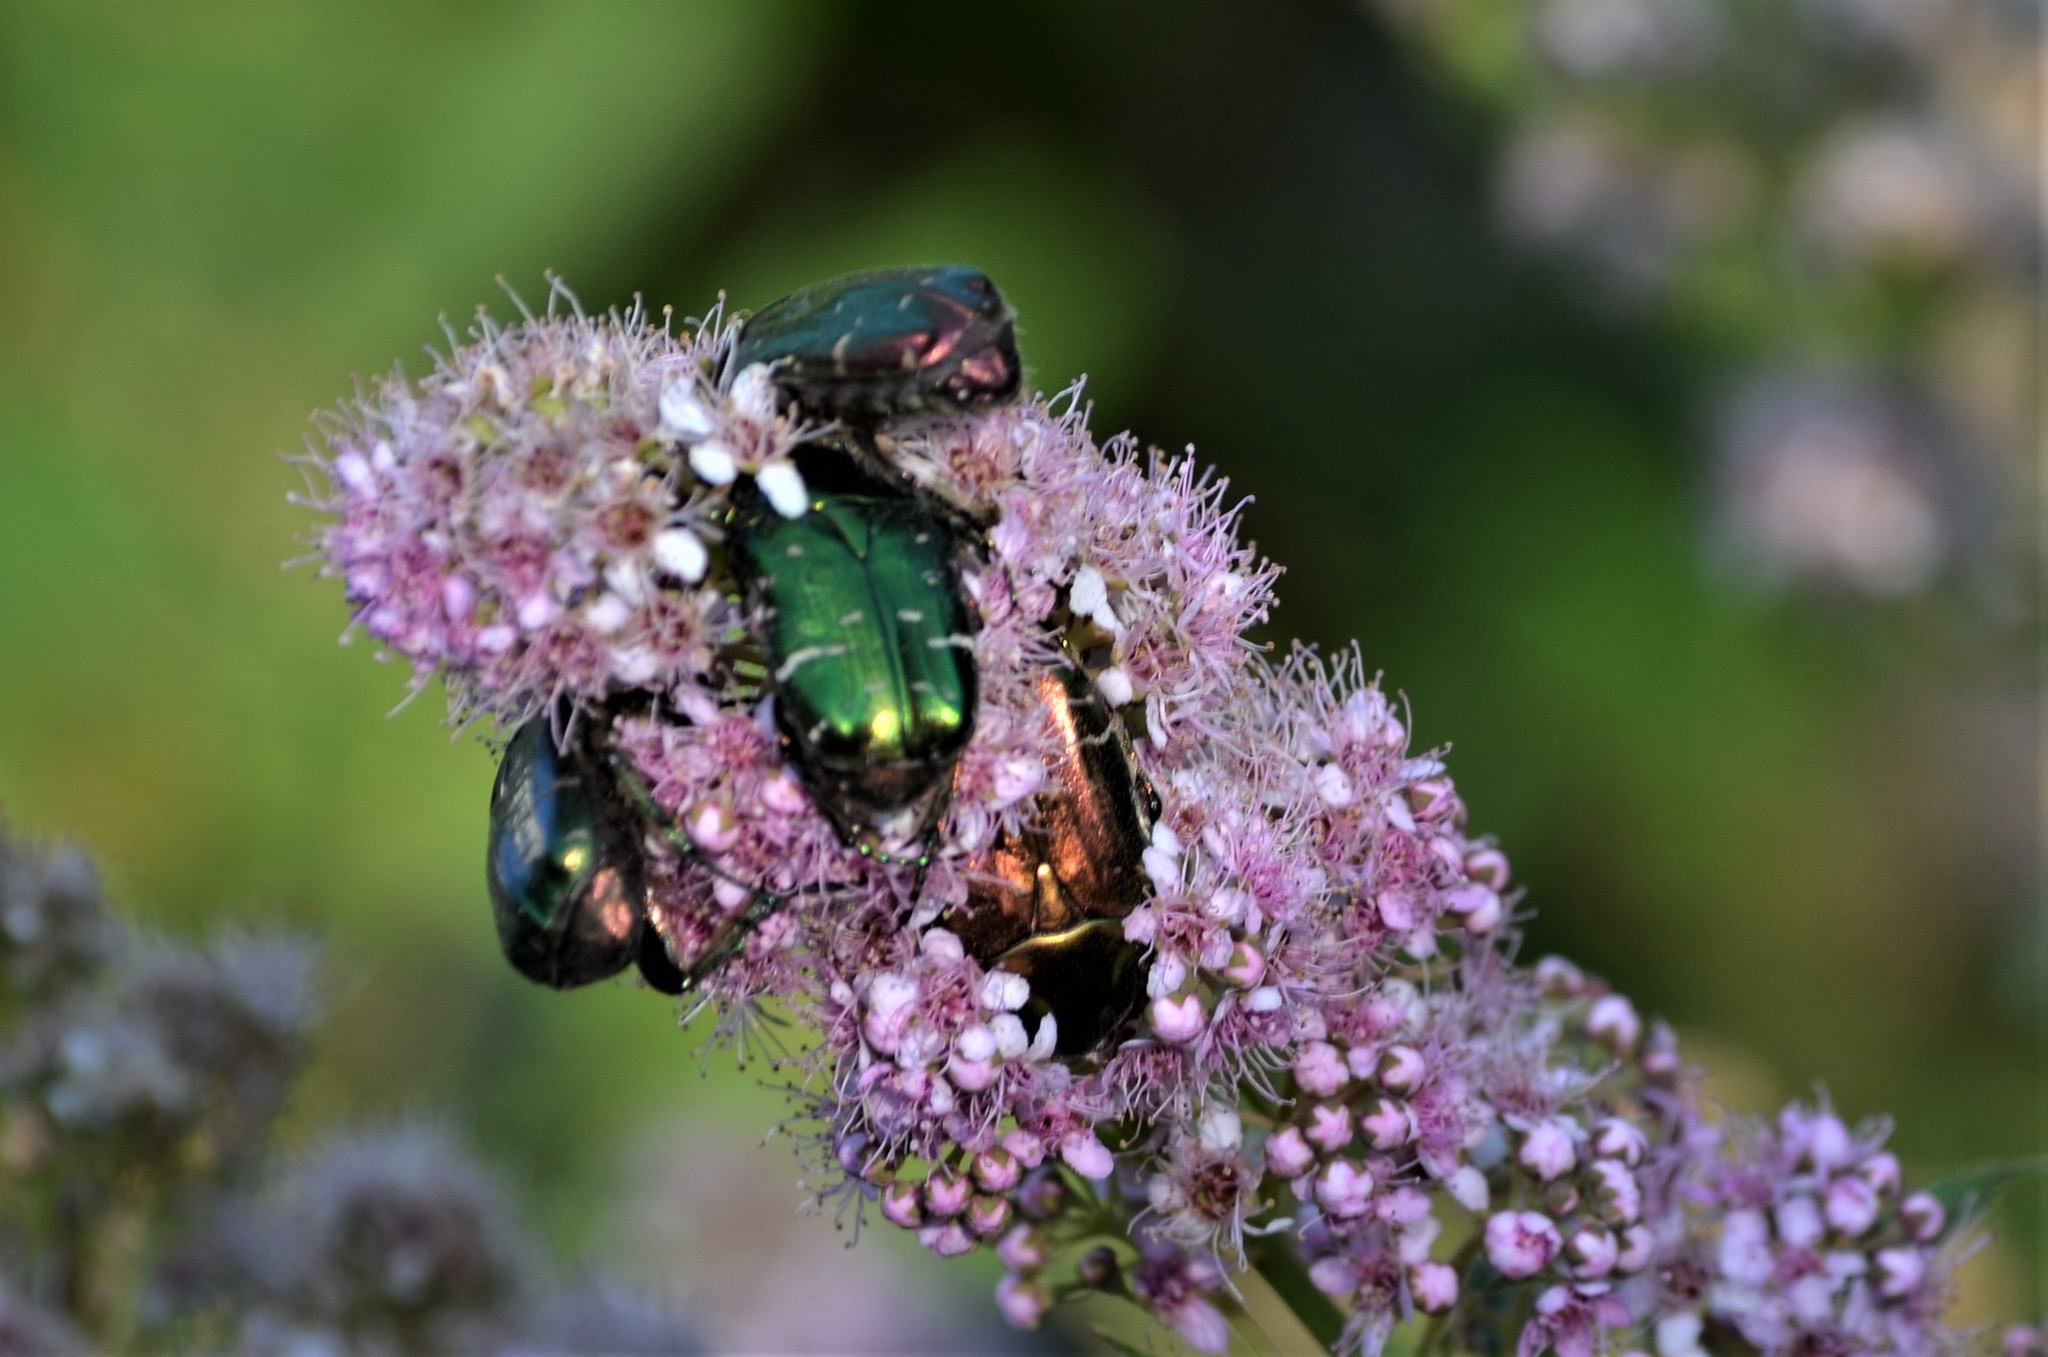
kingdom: Animalia
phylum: Arthropoda
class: Insecta
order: Coleoptera
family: Scarabaeidae
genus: Cetonia
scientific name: Cetonia aurata
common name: Rose chafer
